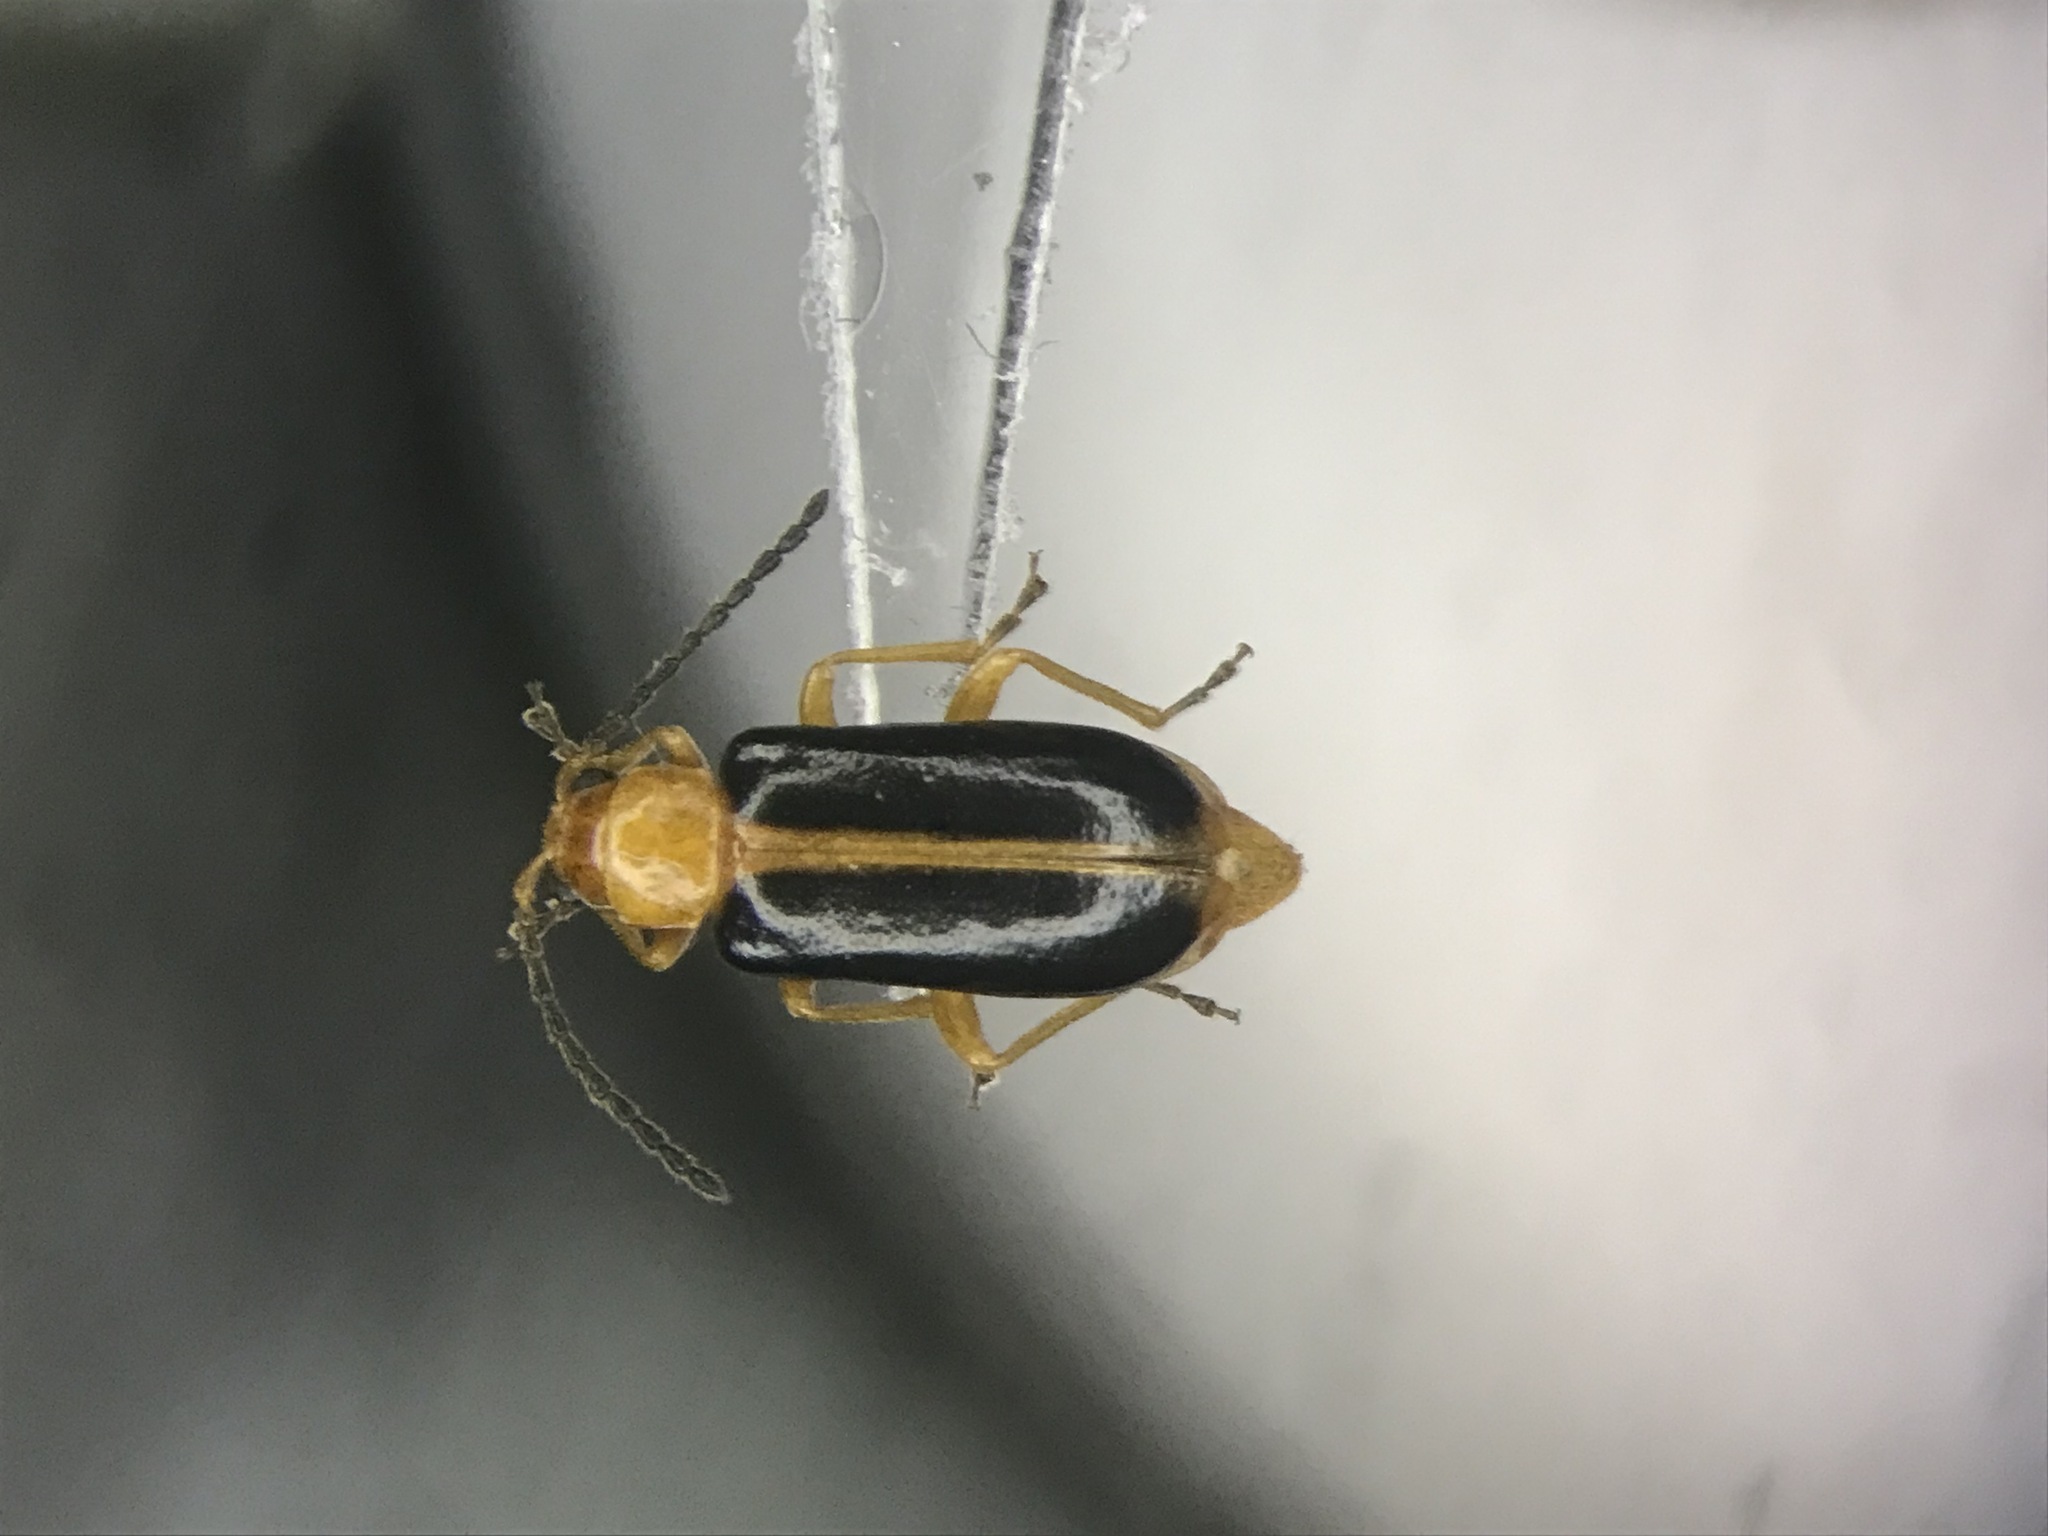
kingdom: Animalia
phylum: Arthropoda
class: Insecta
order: Coleoptera
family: Chrysomelidae
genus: Phyllobrotica
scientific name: Phyllobrotica limbata
